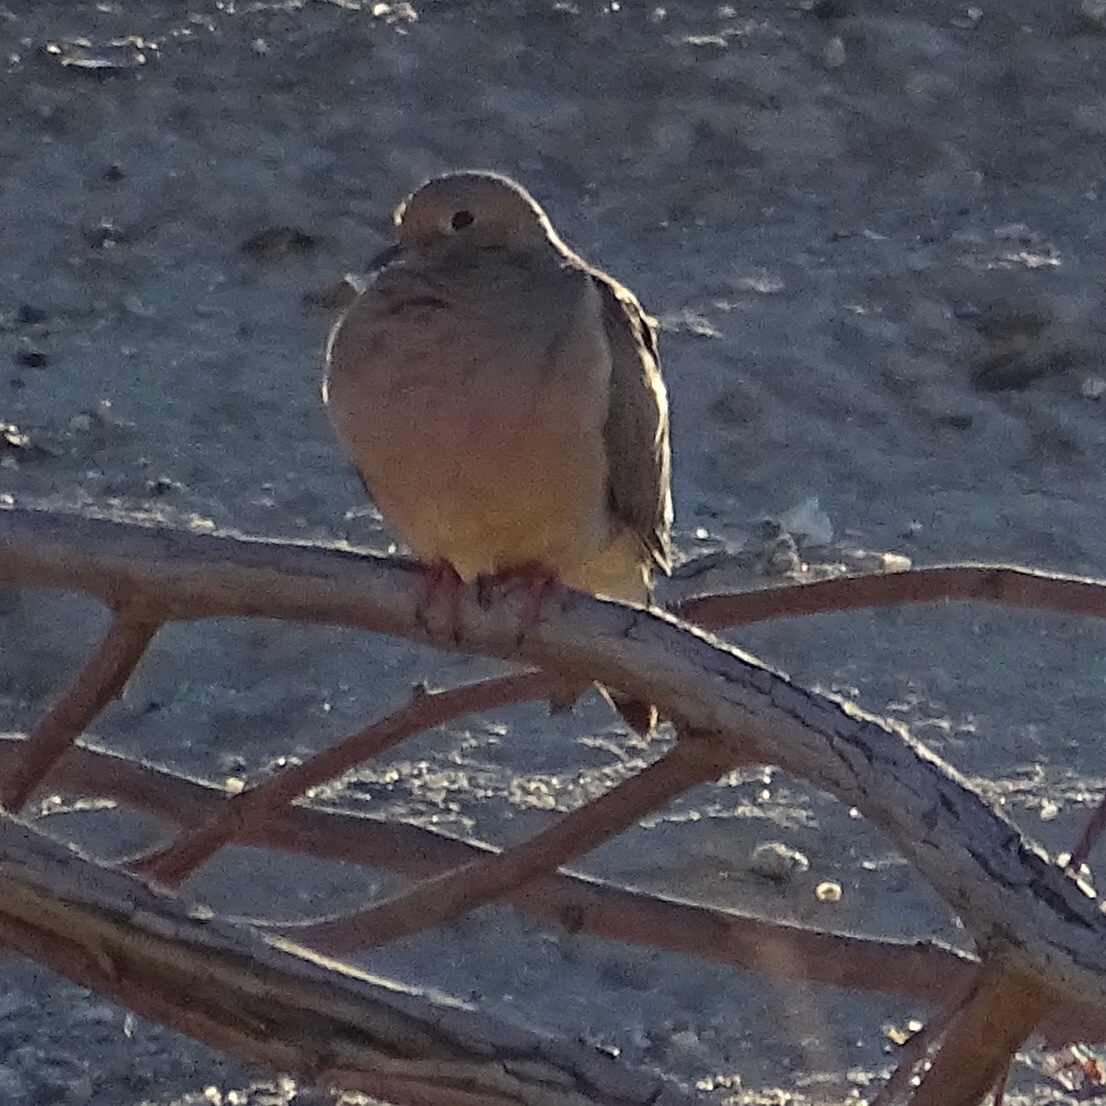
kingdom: Animalia
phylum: Chordata
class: Aves
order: Columbiformes
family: Columbidae
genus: Zenaida
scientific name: Zenaida macroura
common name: Mourning dove
